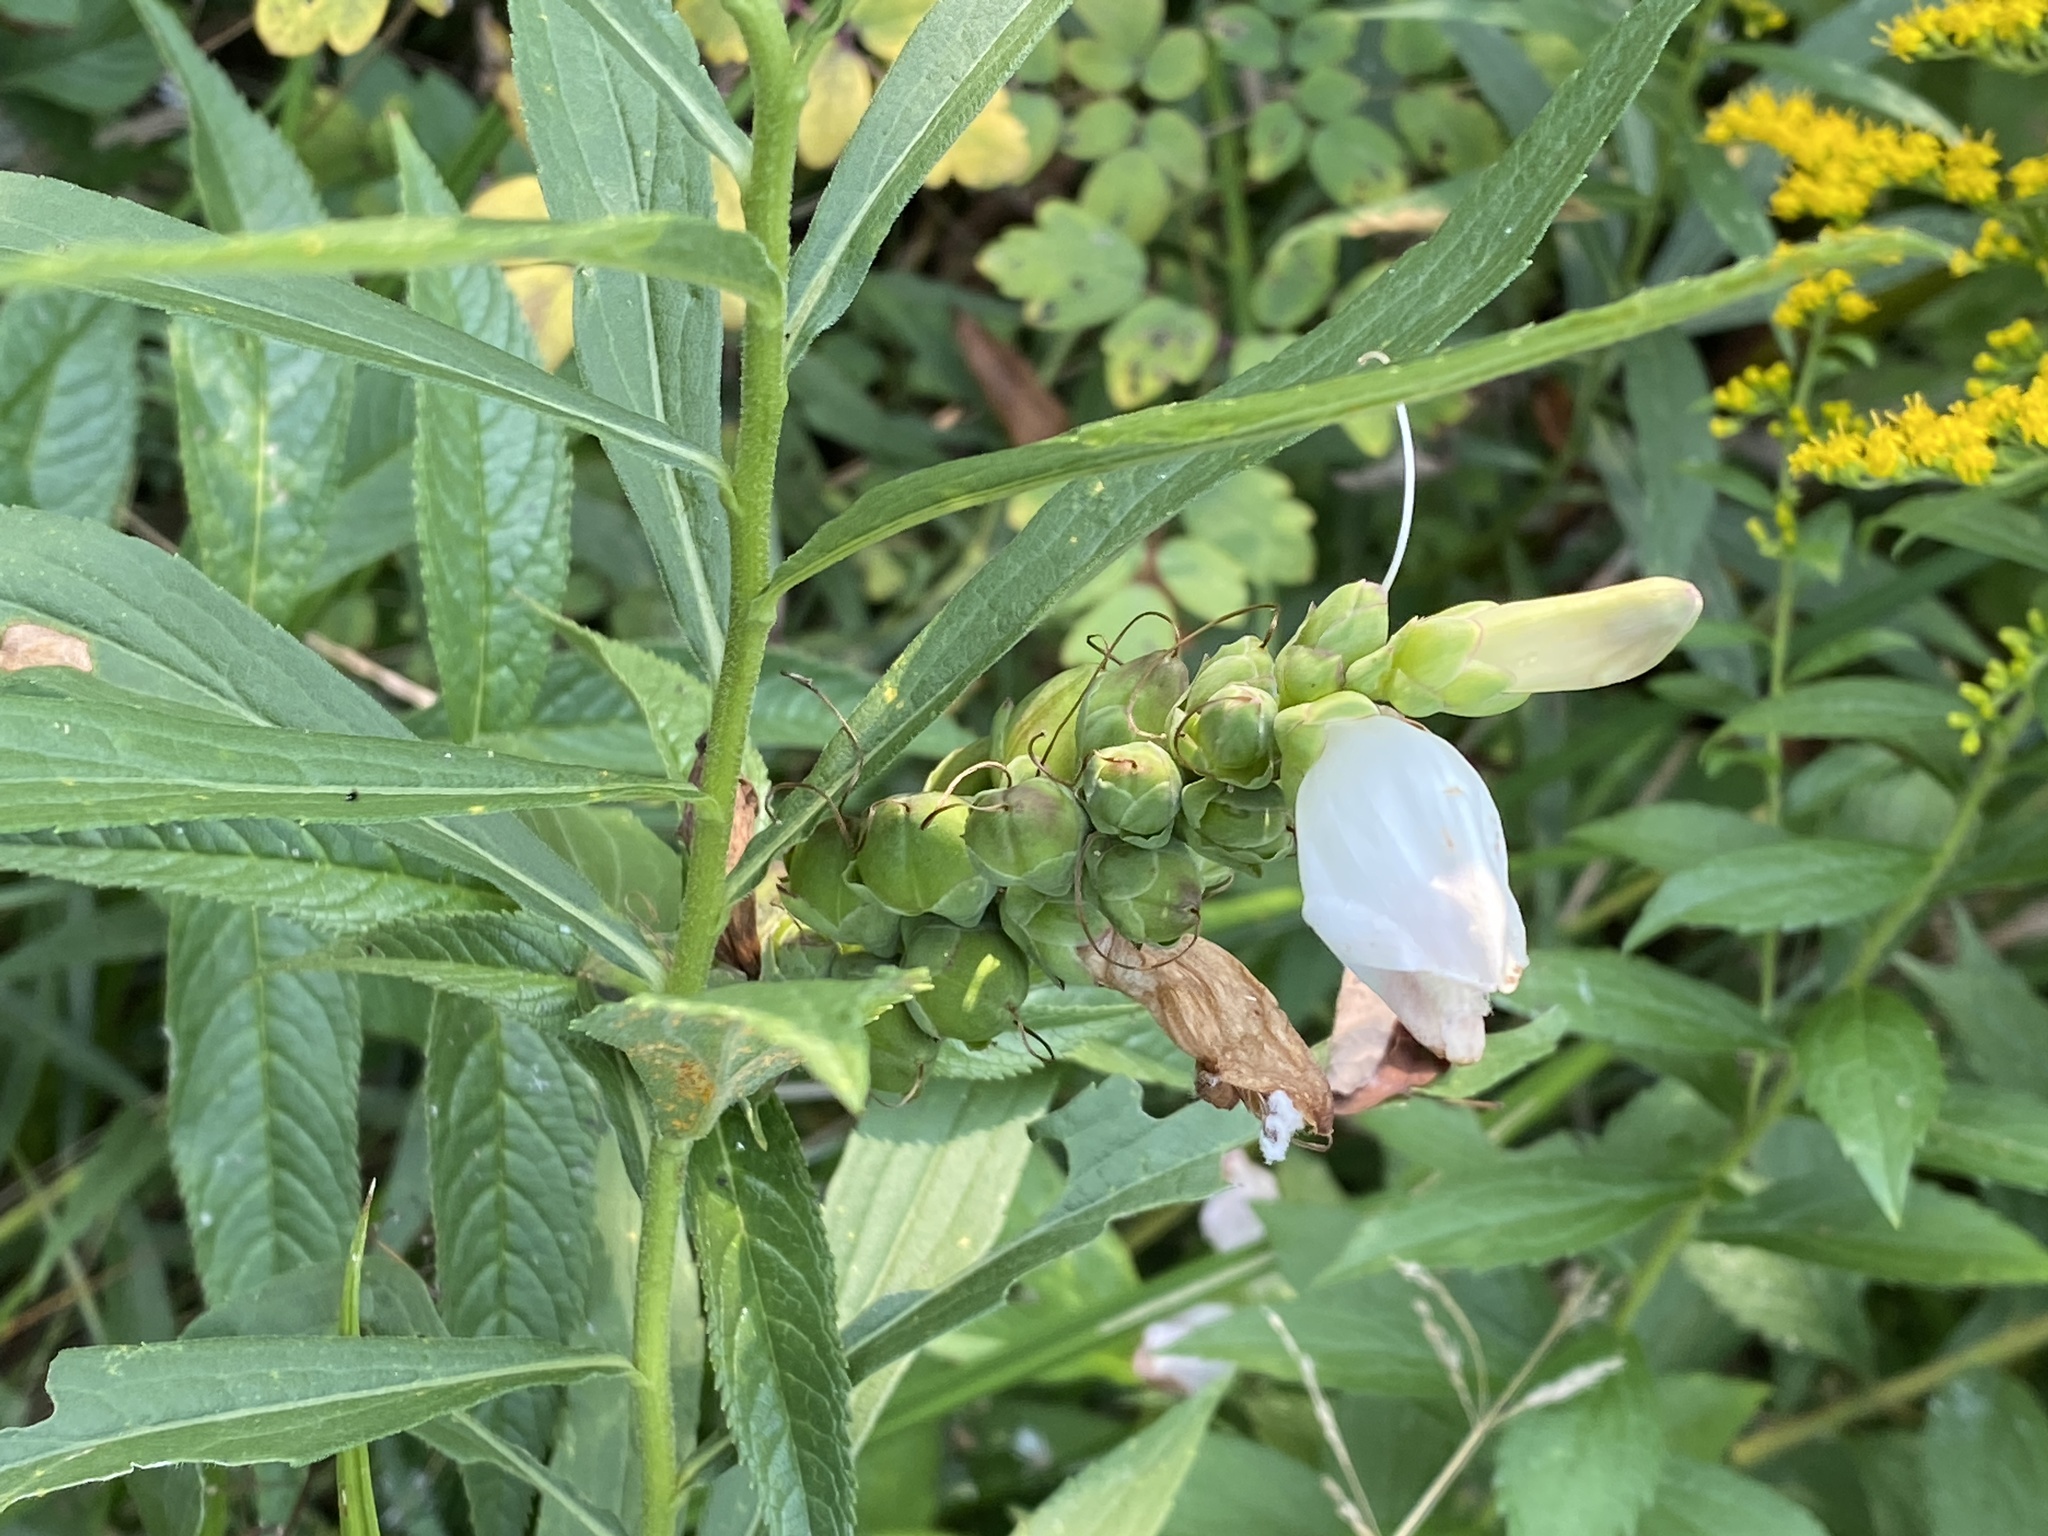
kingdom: Plantae
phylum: Tracheophyta
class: Magnoliopsida
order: Lamiales
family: Plantaginaceae
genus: Chelone
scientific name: Chelone glabra
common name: Snakehead
